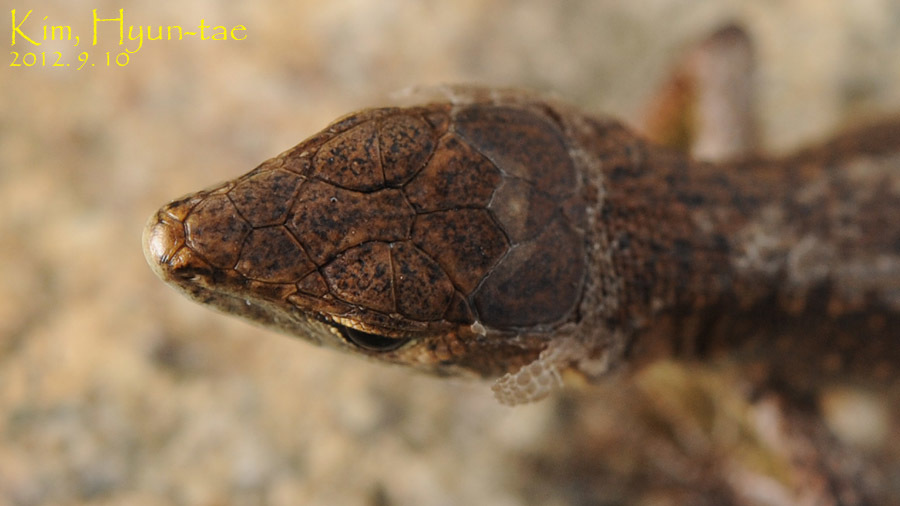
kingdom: Animalia
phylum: Chordata
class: Squamata
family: Lacertidae
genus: Takydromus
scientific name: Takydromus amurensis
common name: Amur grass lizard
